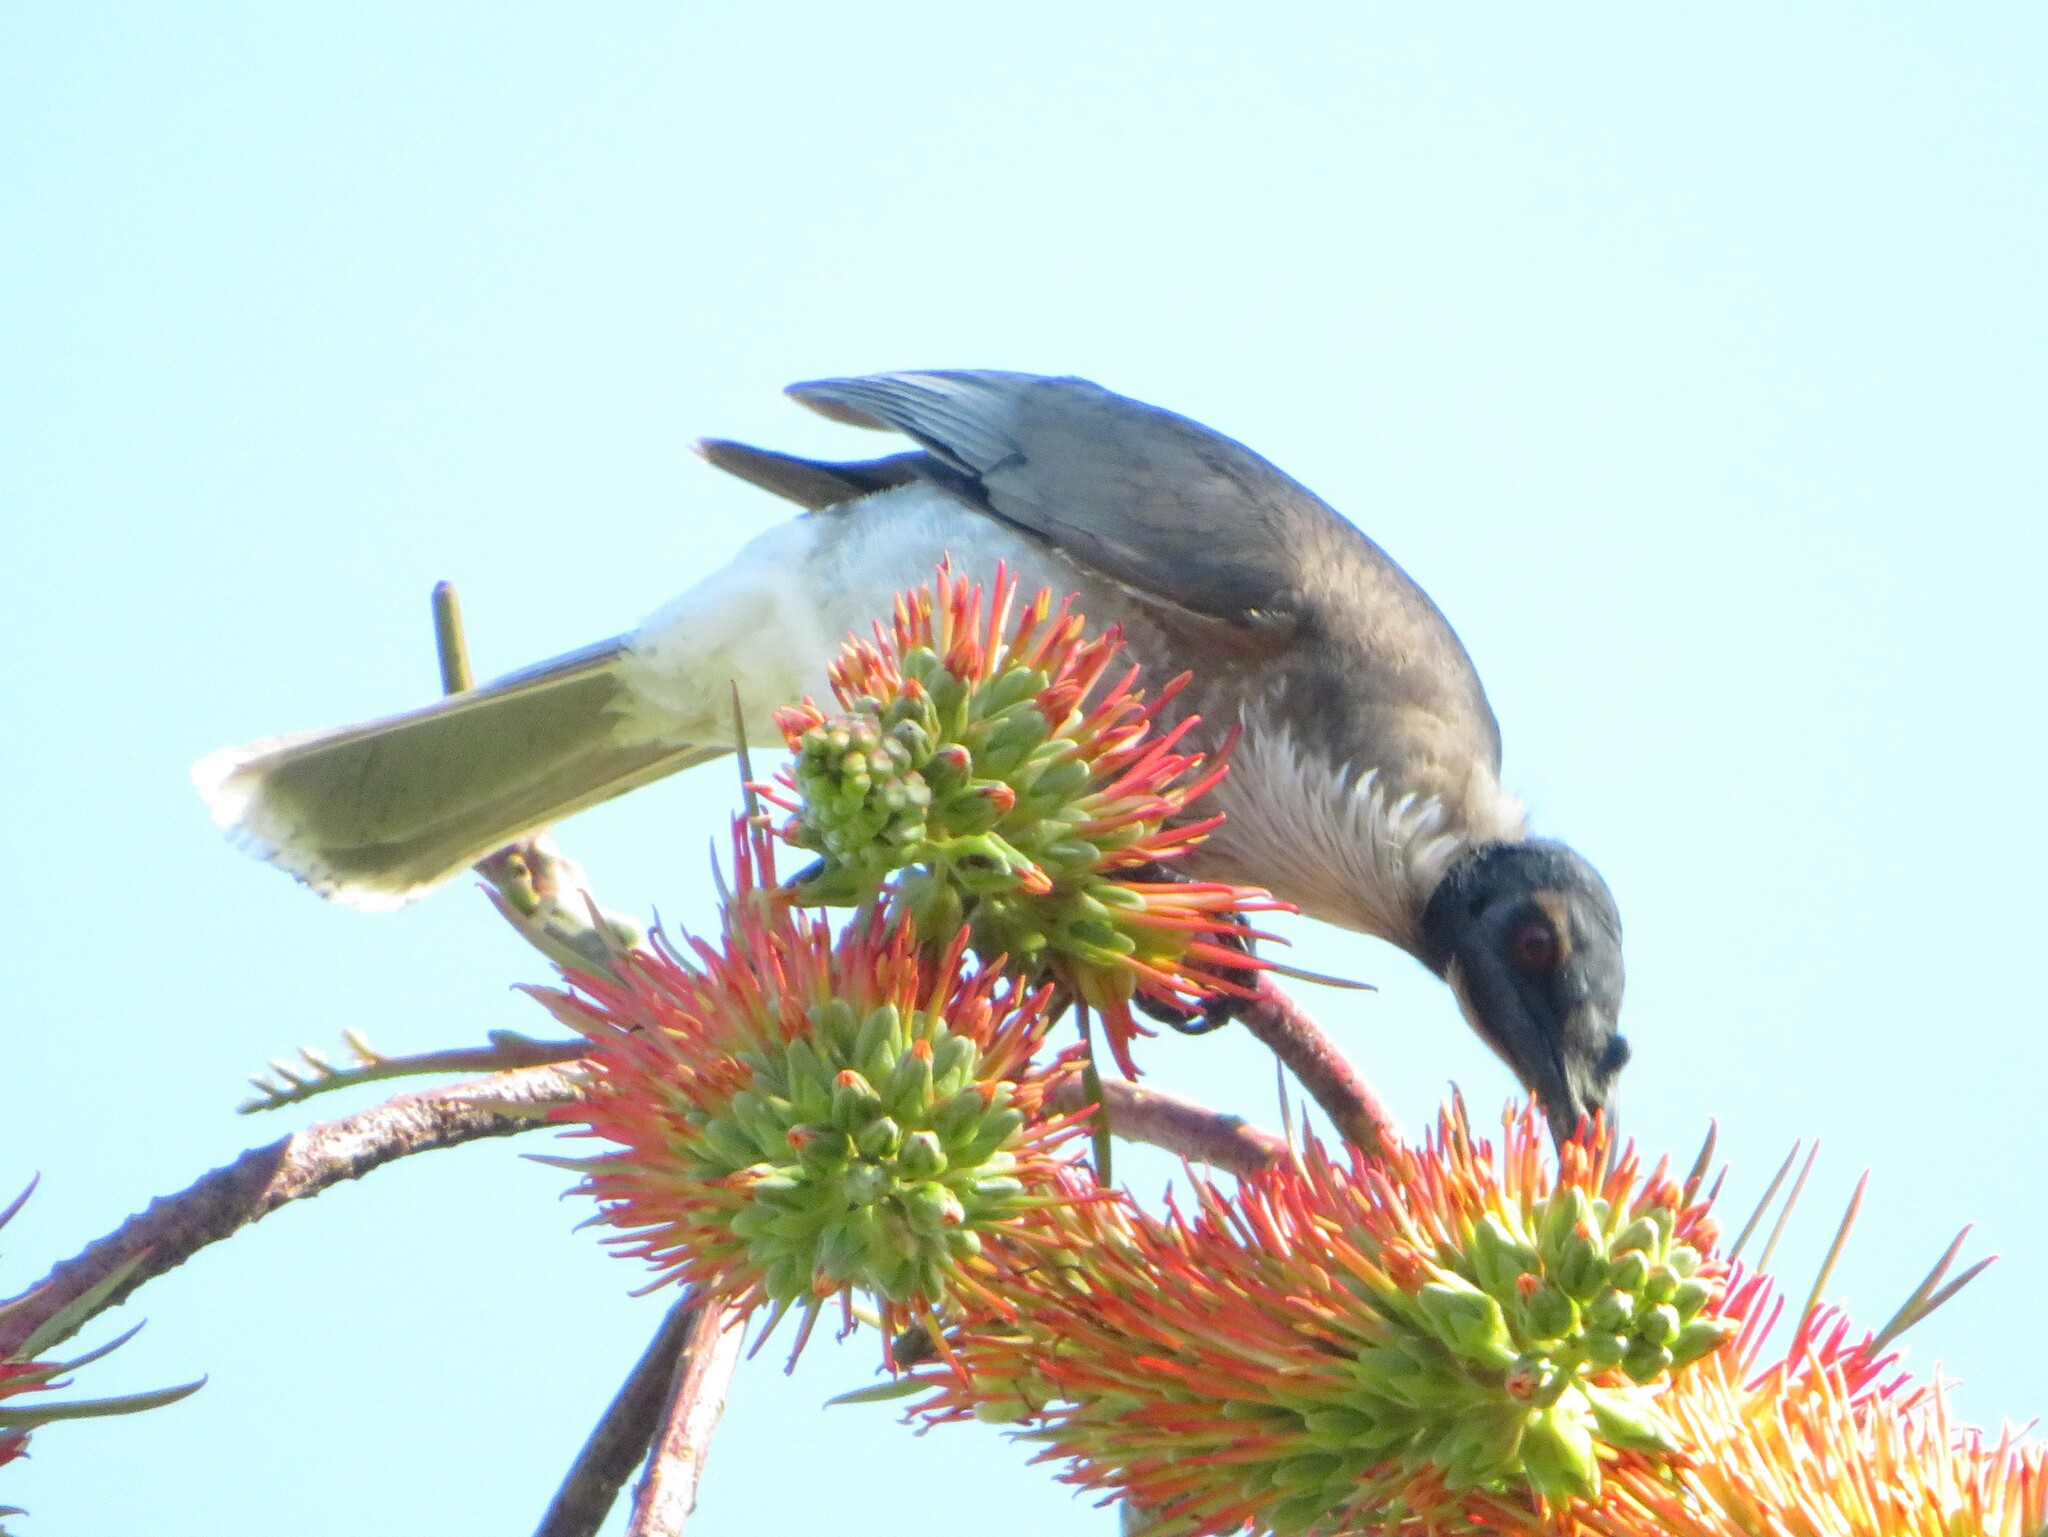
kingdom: Animalia
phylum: Chordata
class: Aves
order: Passeriformes
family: Meliphagidae
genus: Philemon
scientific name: Philemon corniculatus
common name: Noisy friarbird
